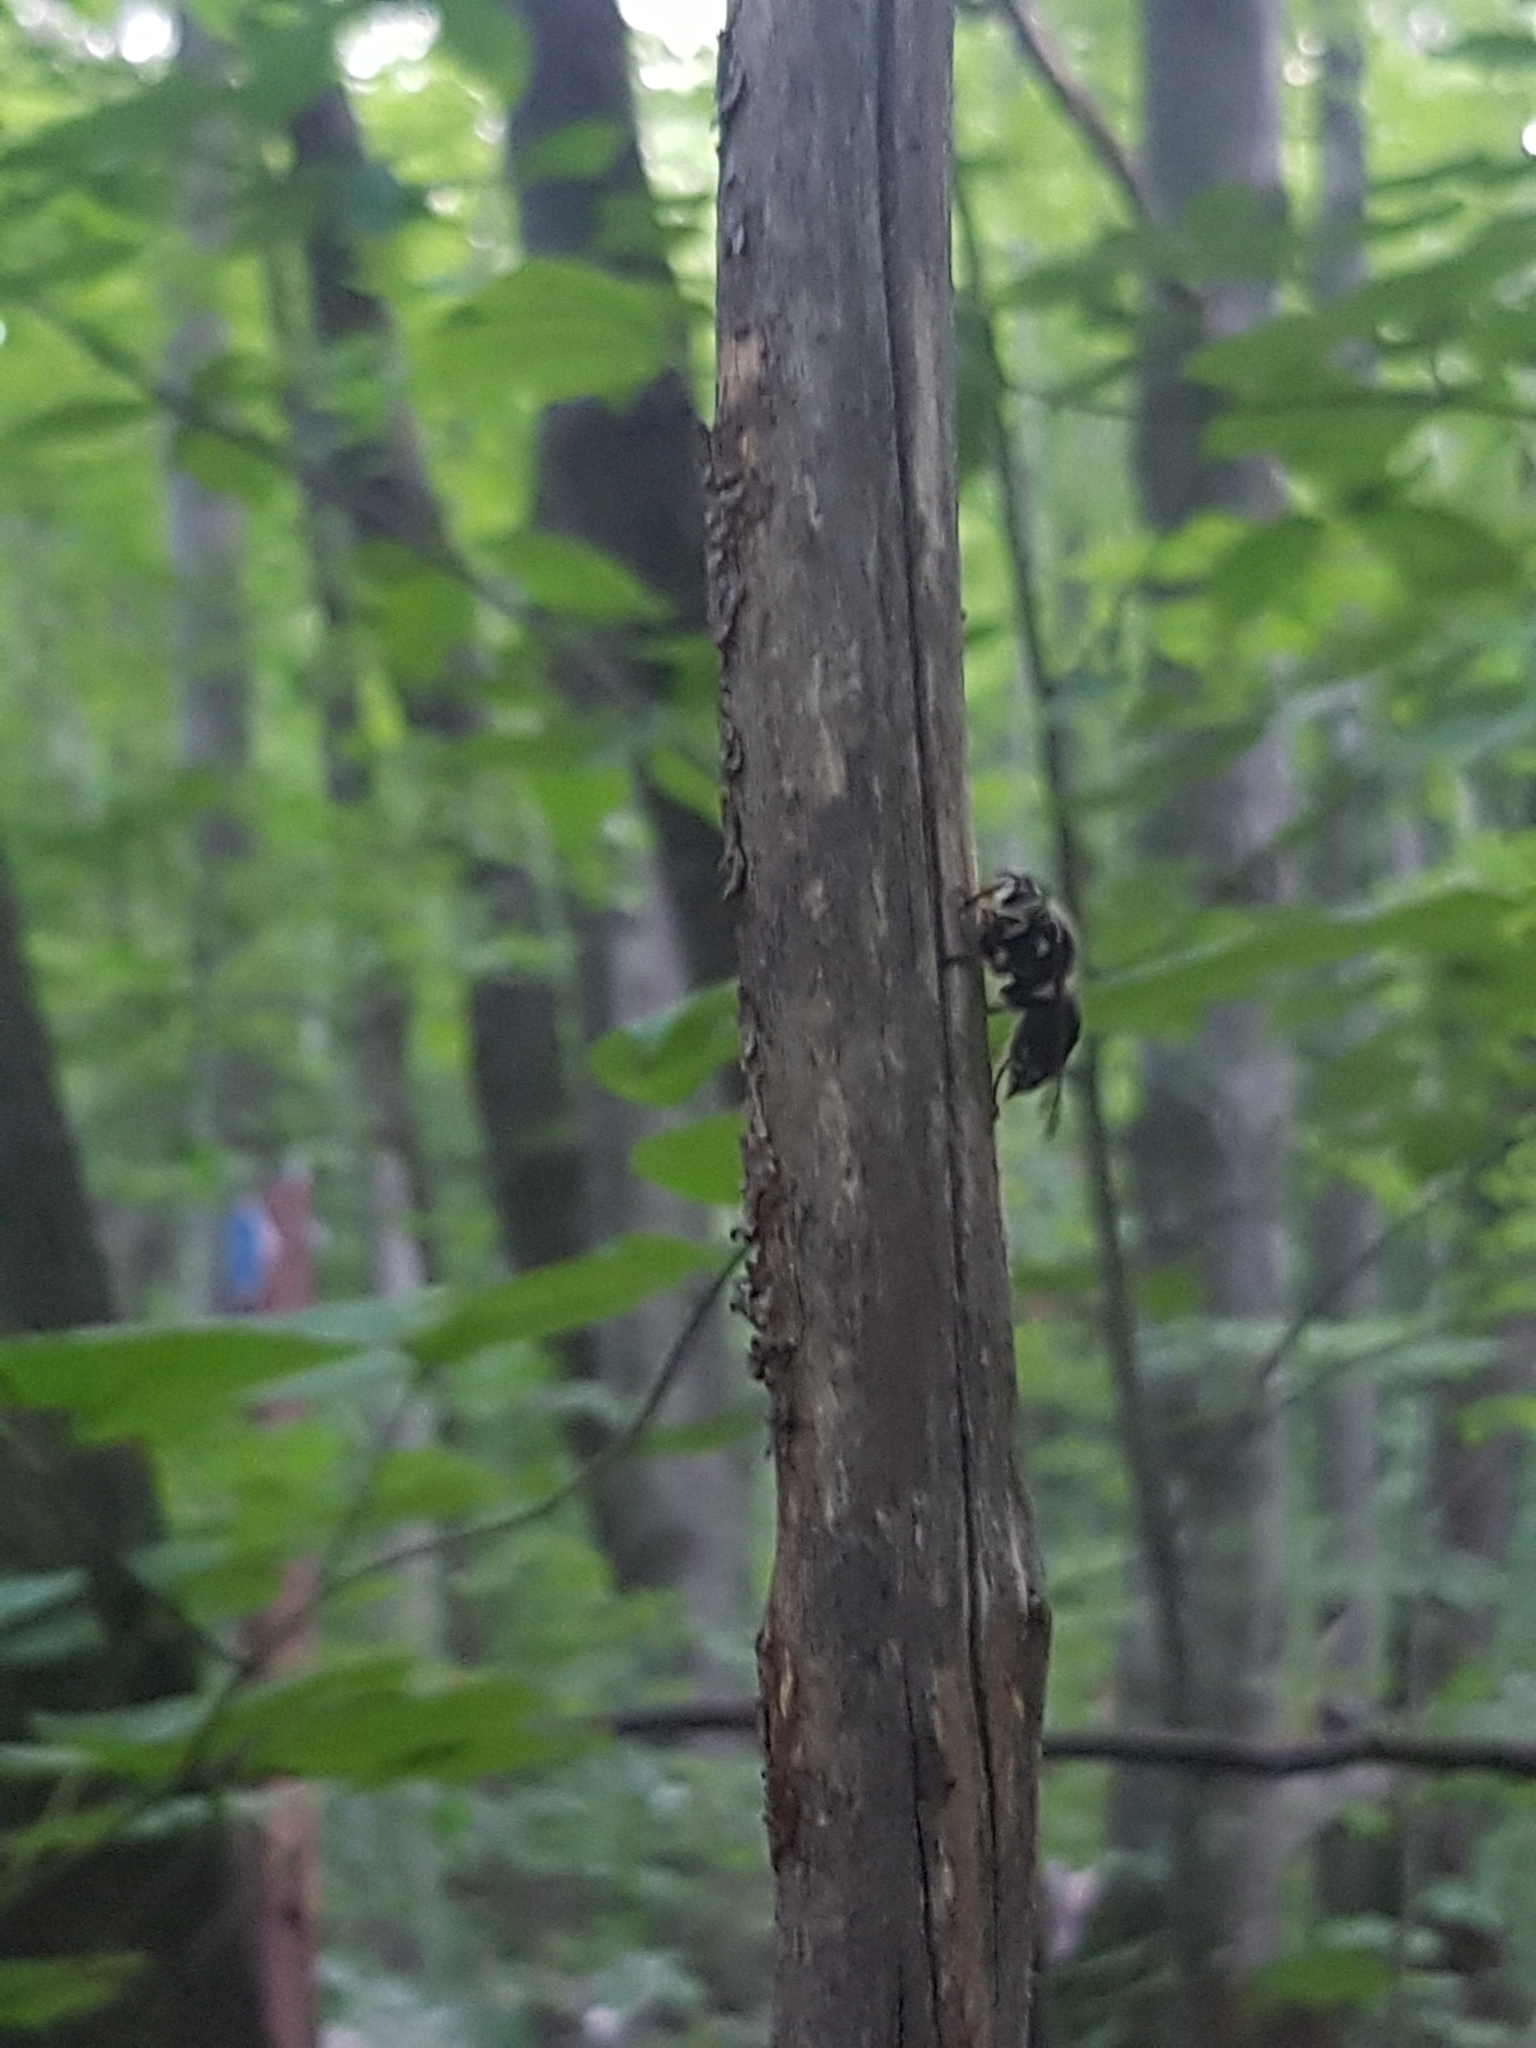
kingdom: Animalia
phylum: Arthropoda
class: Insecta
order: Hymenoptera
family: Vespidae
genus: Dolichovespula
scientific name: Dolichovespula maculata
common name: Bald-faced hornet
